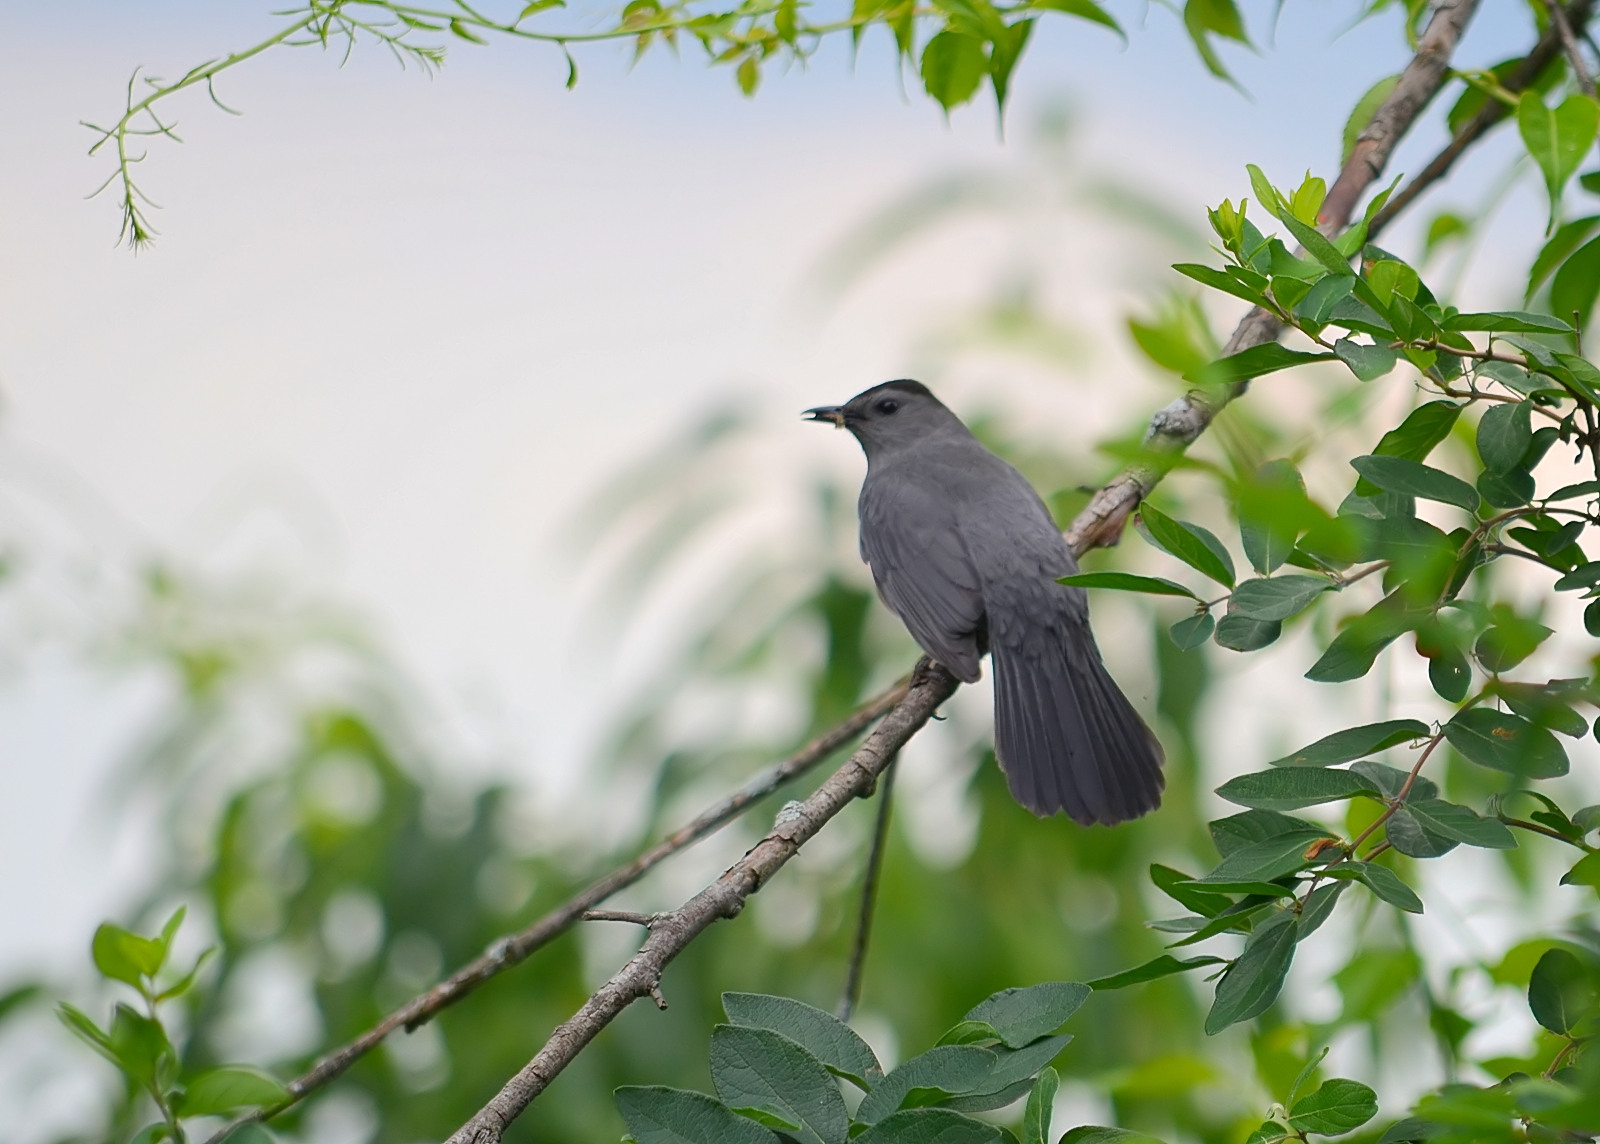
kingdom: Animalia
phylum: Chordata
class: Aves
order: Passeriformes
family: Mimidae
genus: Dumetella
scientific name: Dumetella carolinensis
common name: Gray catbird
